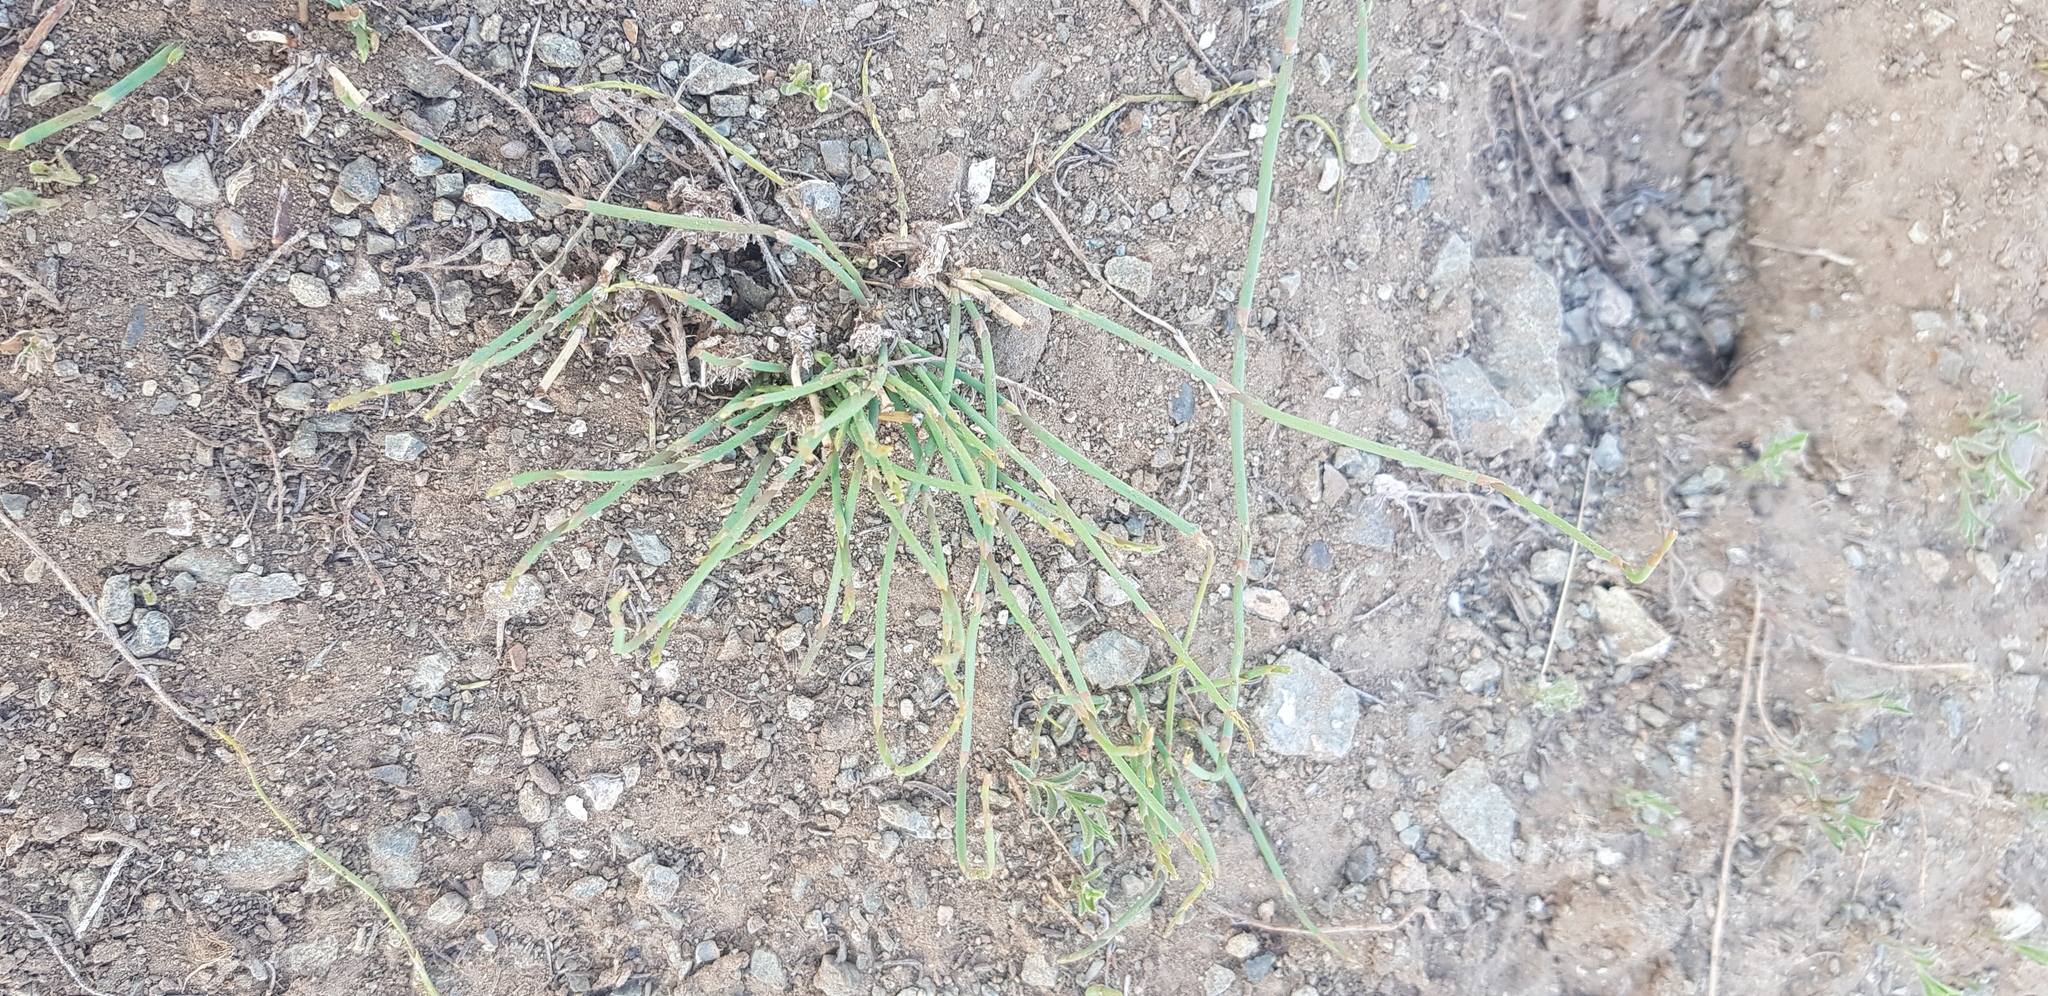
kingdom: Plantae
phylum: Tracheophyta
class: Gnetopsida
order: Ephedrales
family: Ephedraceae
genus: Ephedra
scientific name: Ephedra sinica
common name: Chinese ephedra
